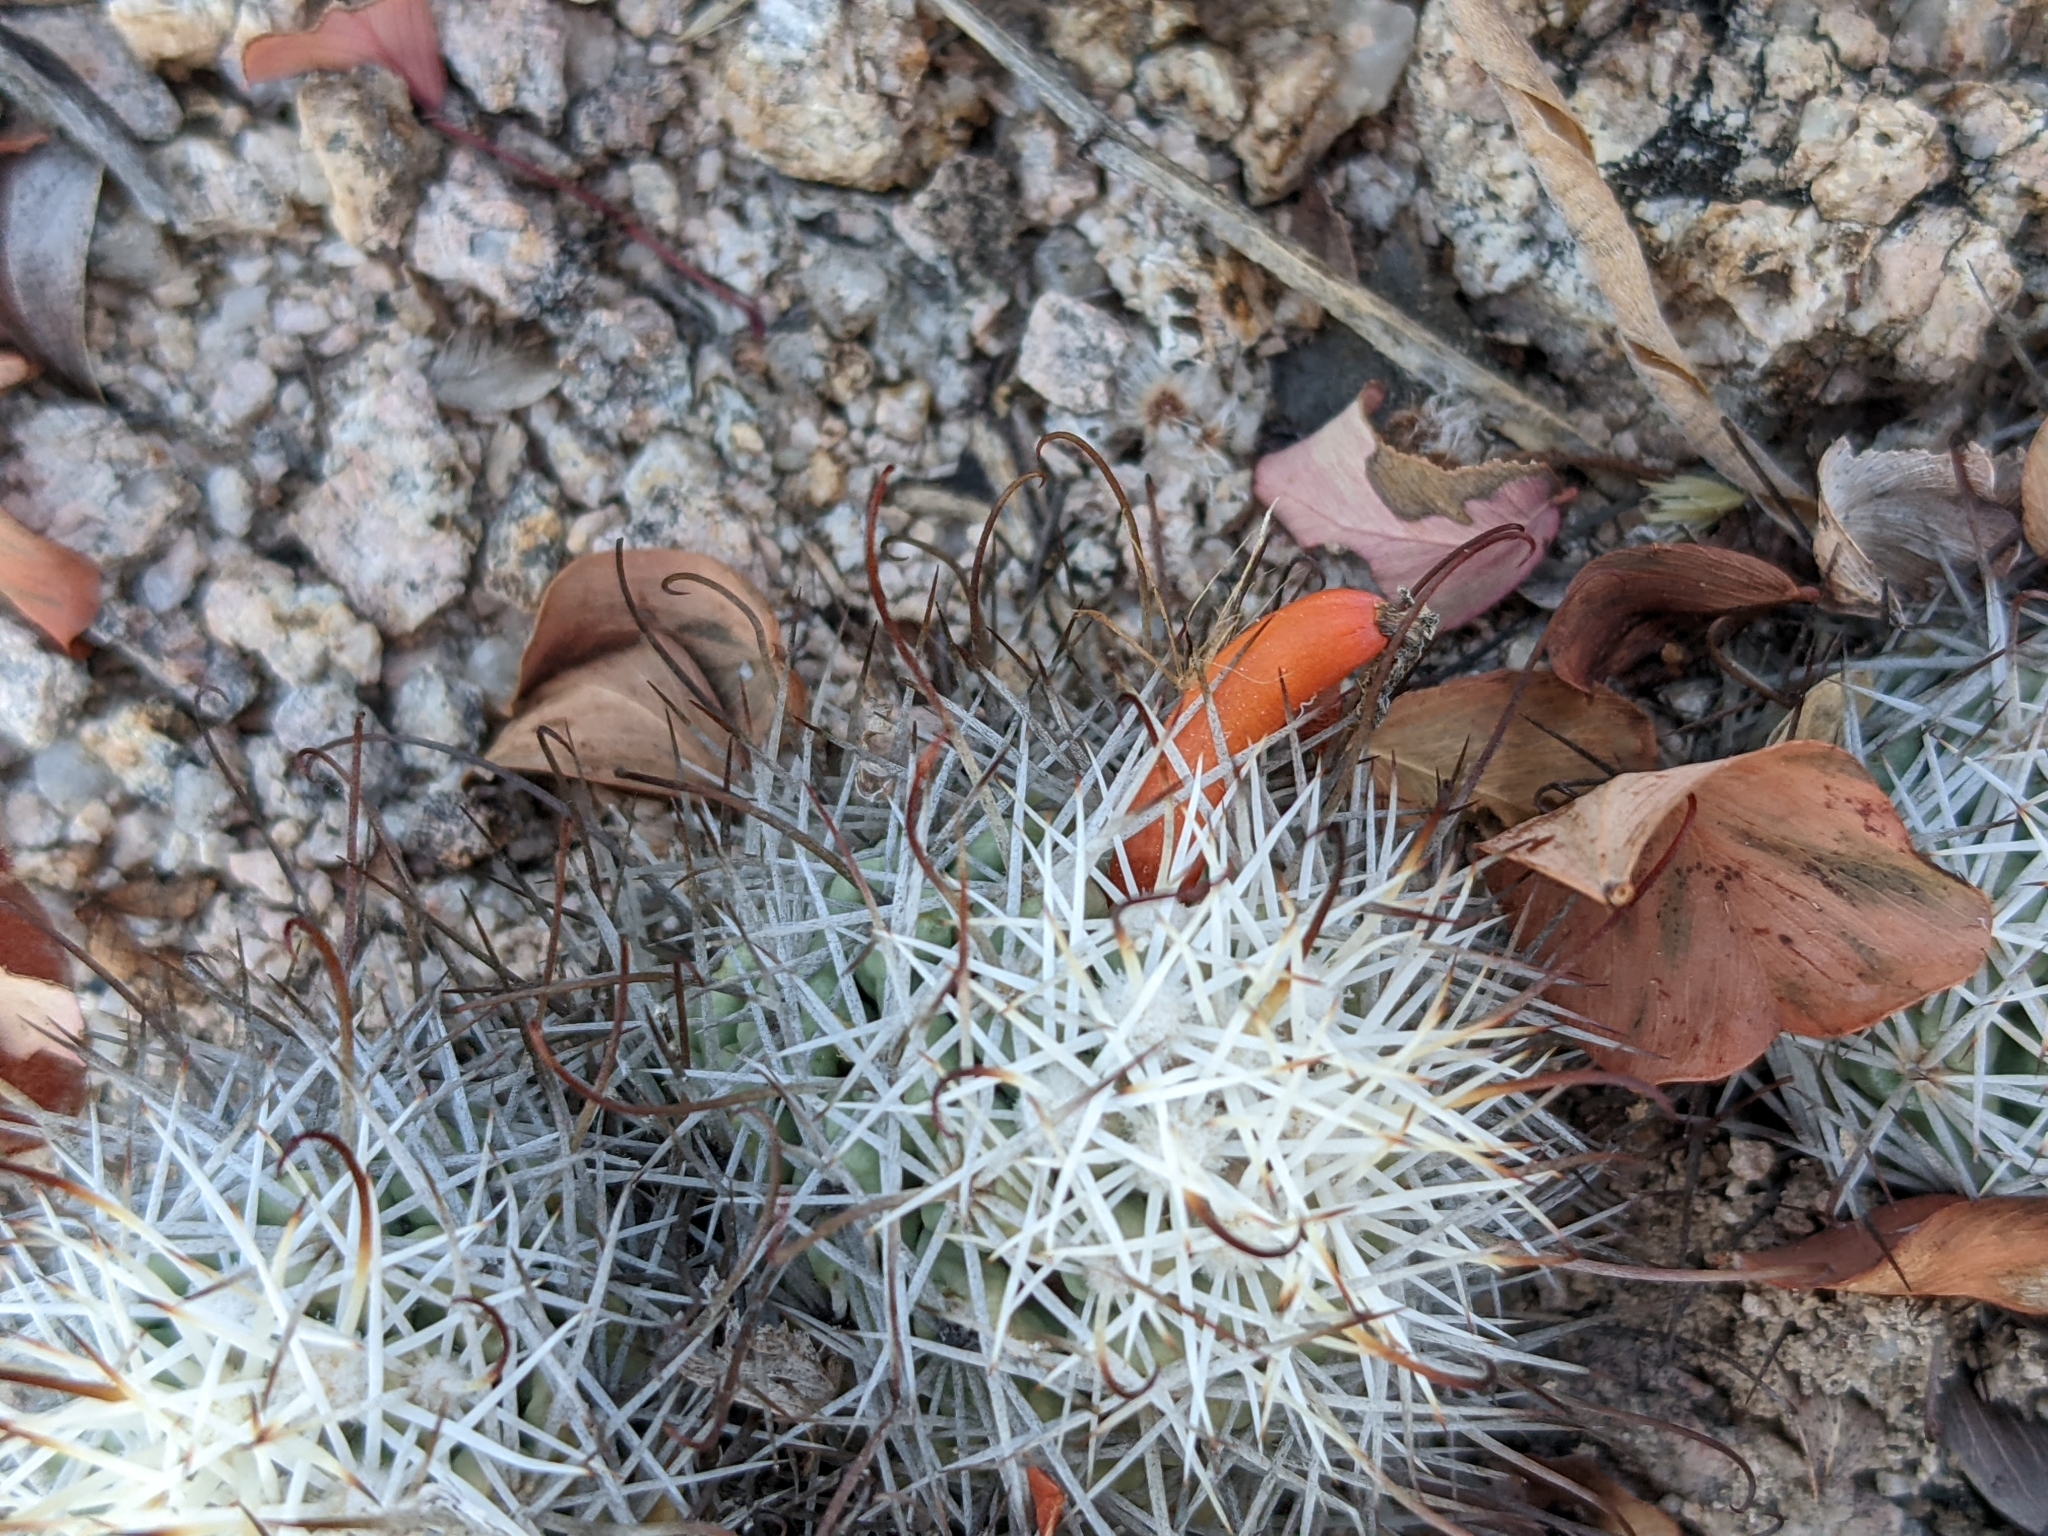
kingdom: Plantae
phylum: Tracheophyta
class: Magnoliopsida
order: Caryophyllales
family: Cactaceae
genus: Cochemiea
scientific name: Cochemiea schumannii
